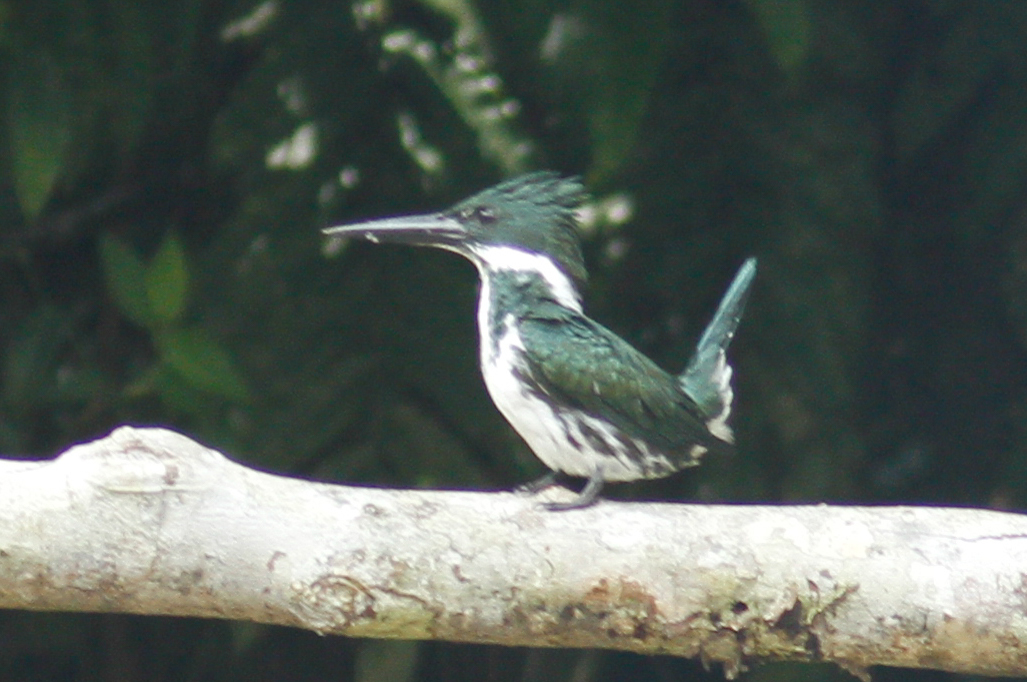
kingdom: Animalia
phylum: Chordata
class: Aves
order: Coraciiformes
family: Alcedinidae
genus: Chloroceryle
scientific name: Chloroceryle amazona
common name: Amazon kingfisher
